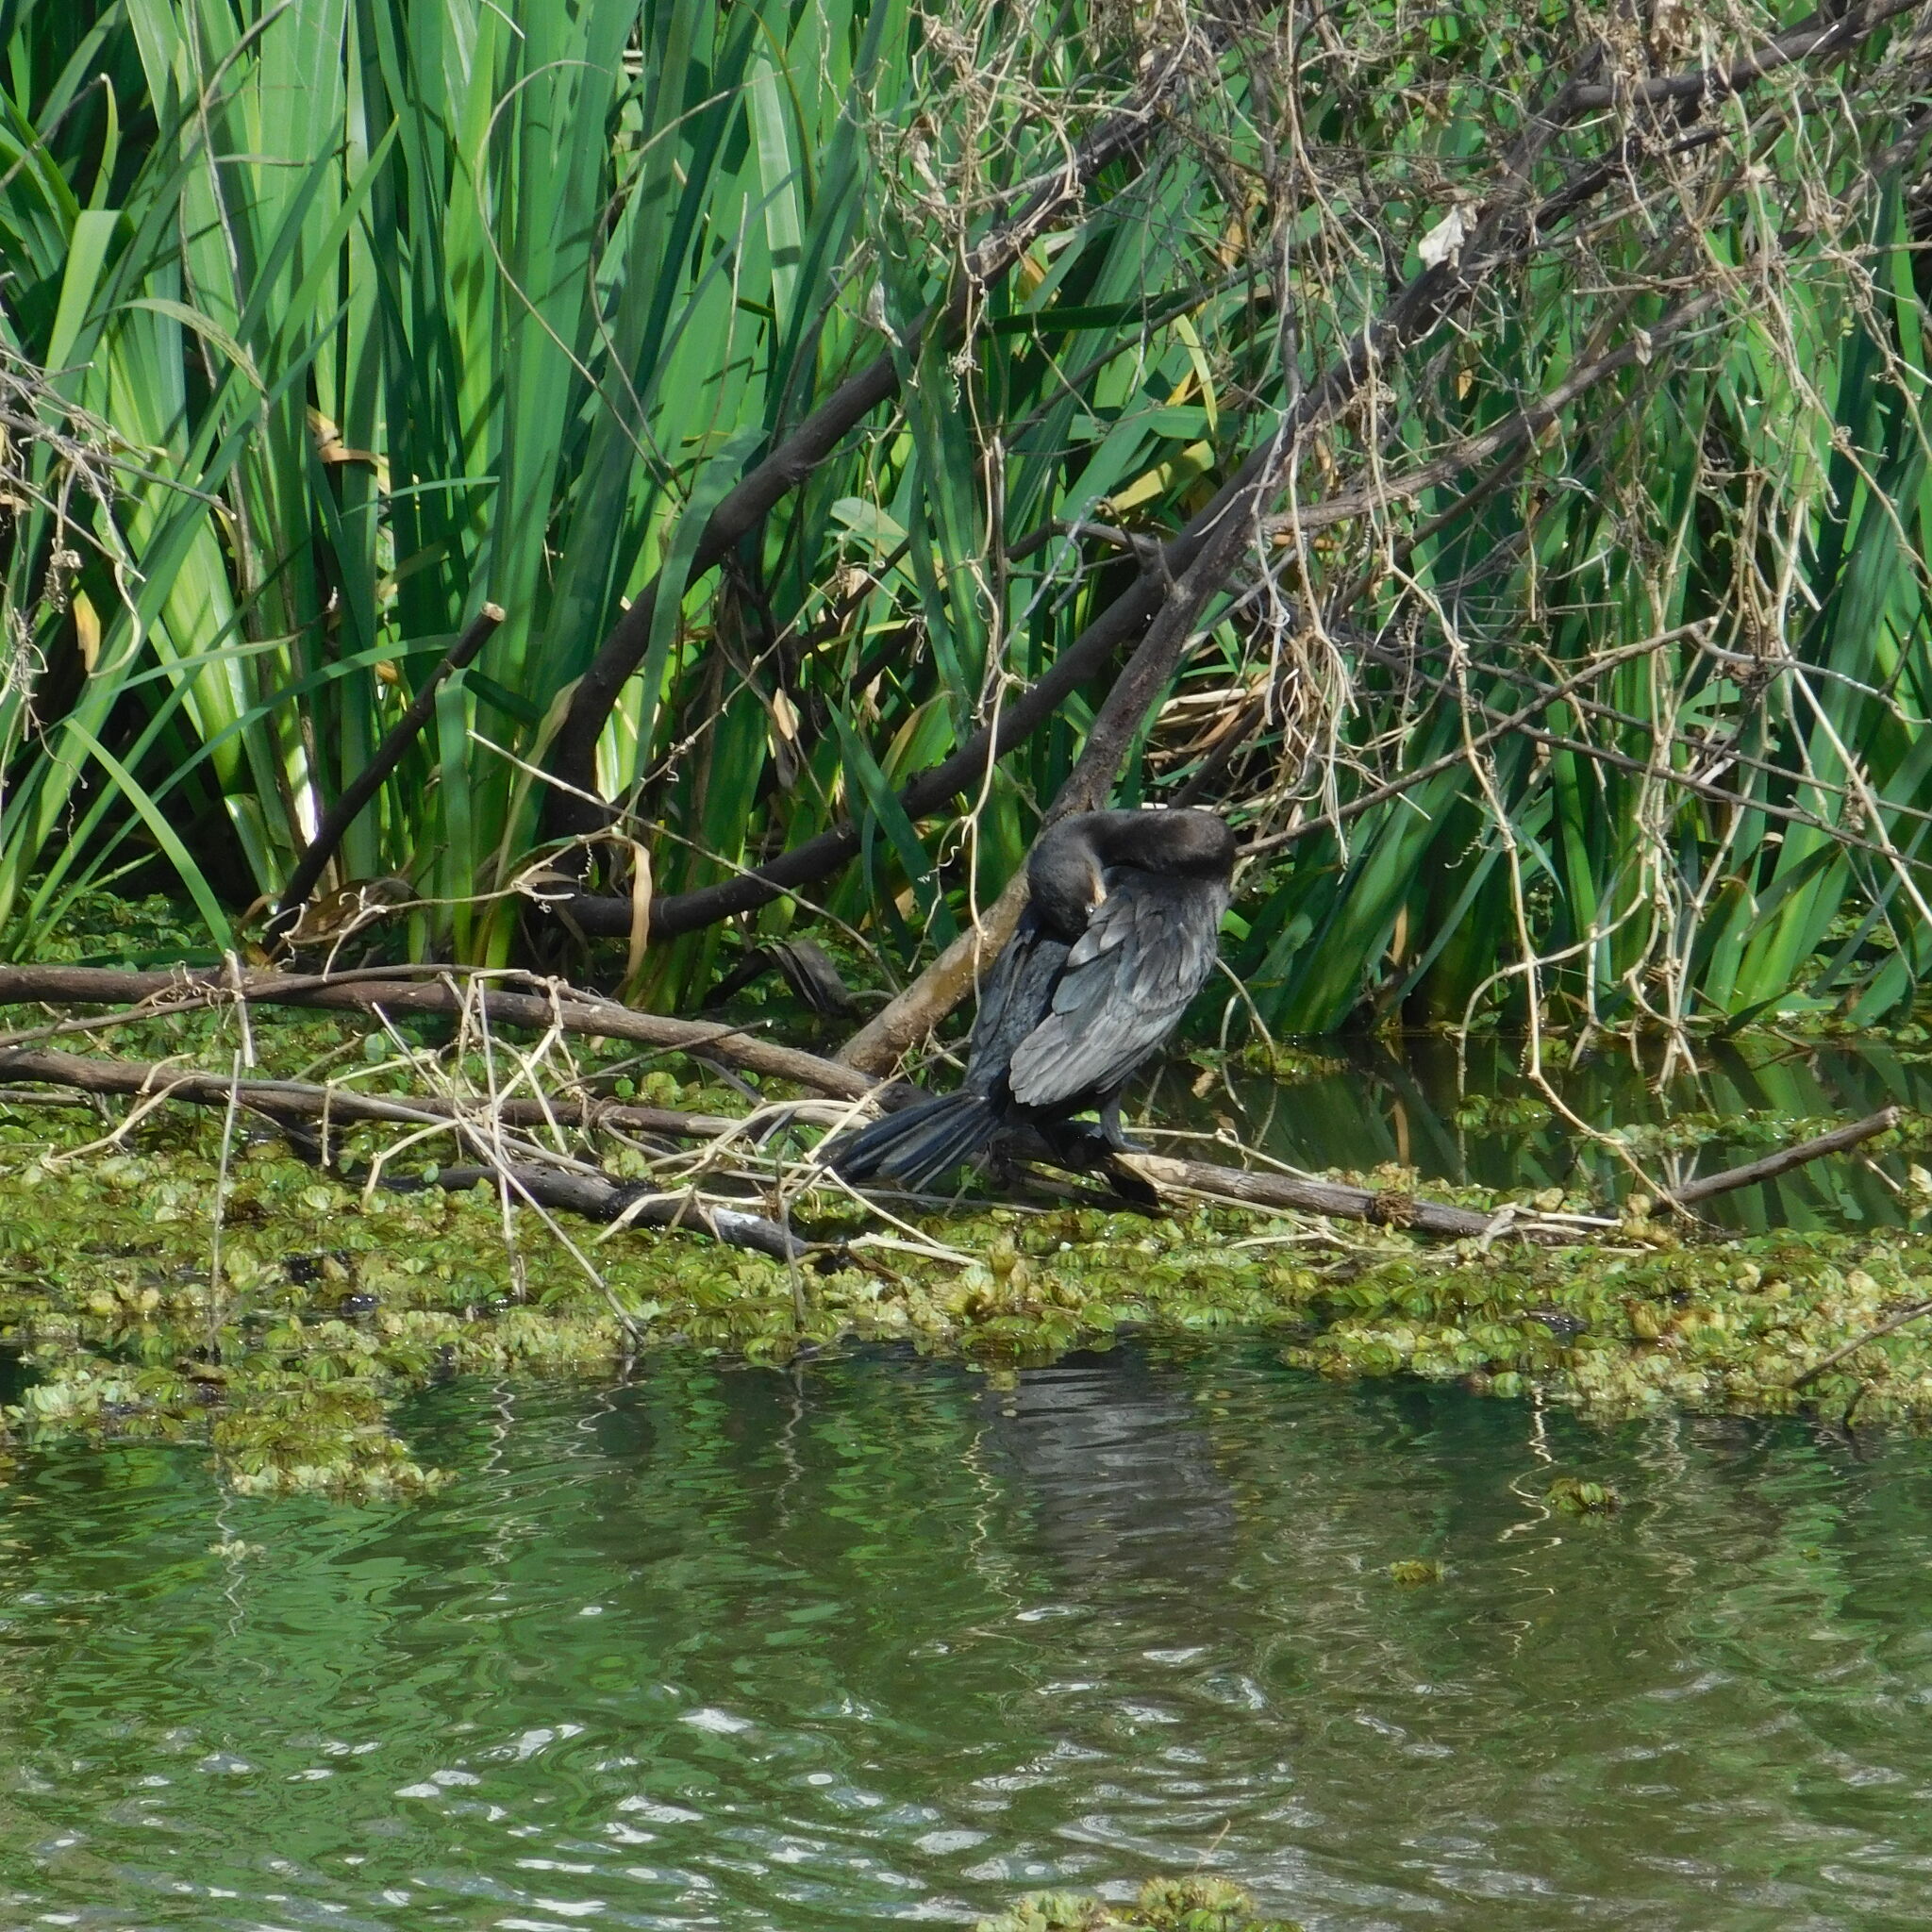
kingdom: Animalia
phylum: Chordata
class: Aves
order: Suliformes
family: Phalacrocoracidae
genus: Phalacrocorax
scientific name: Phalacrocorax brasilianus
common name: Neotropic cormorant
